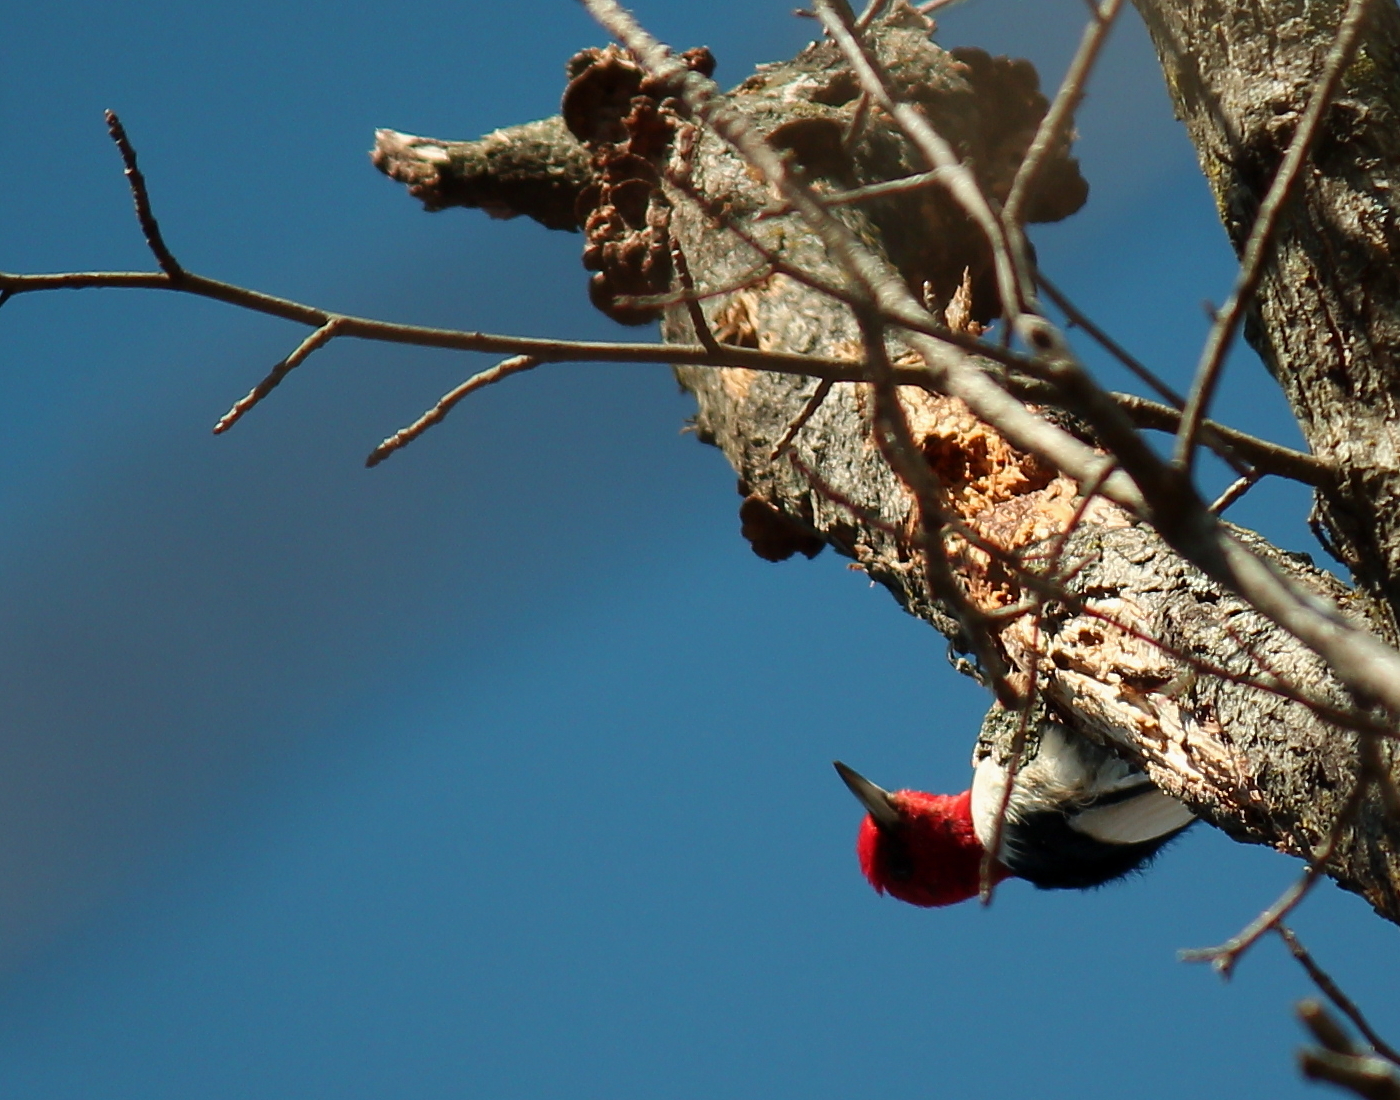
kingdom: Animalia
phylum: Chordata
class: Aves
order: Piciformes
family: Picidae
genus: Melanerpes
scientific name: Melanerpes erythrocephalus
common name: Red-headed woodpecker
